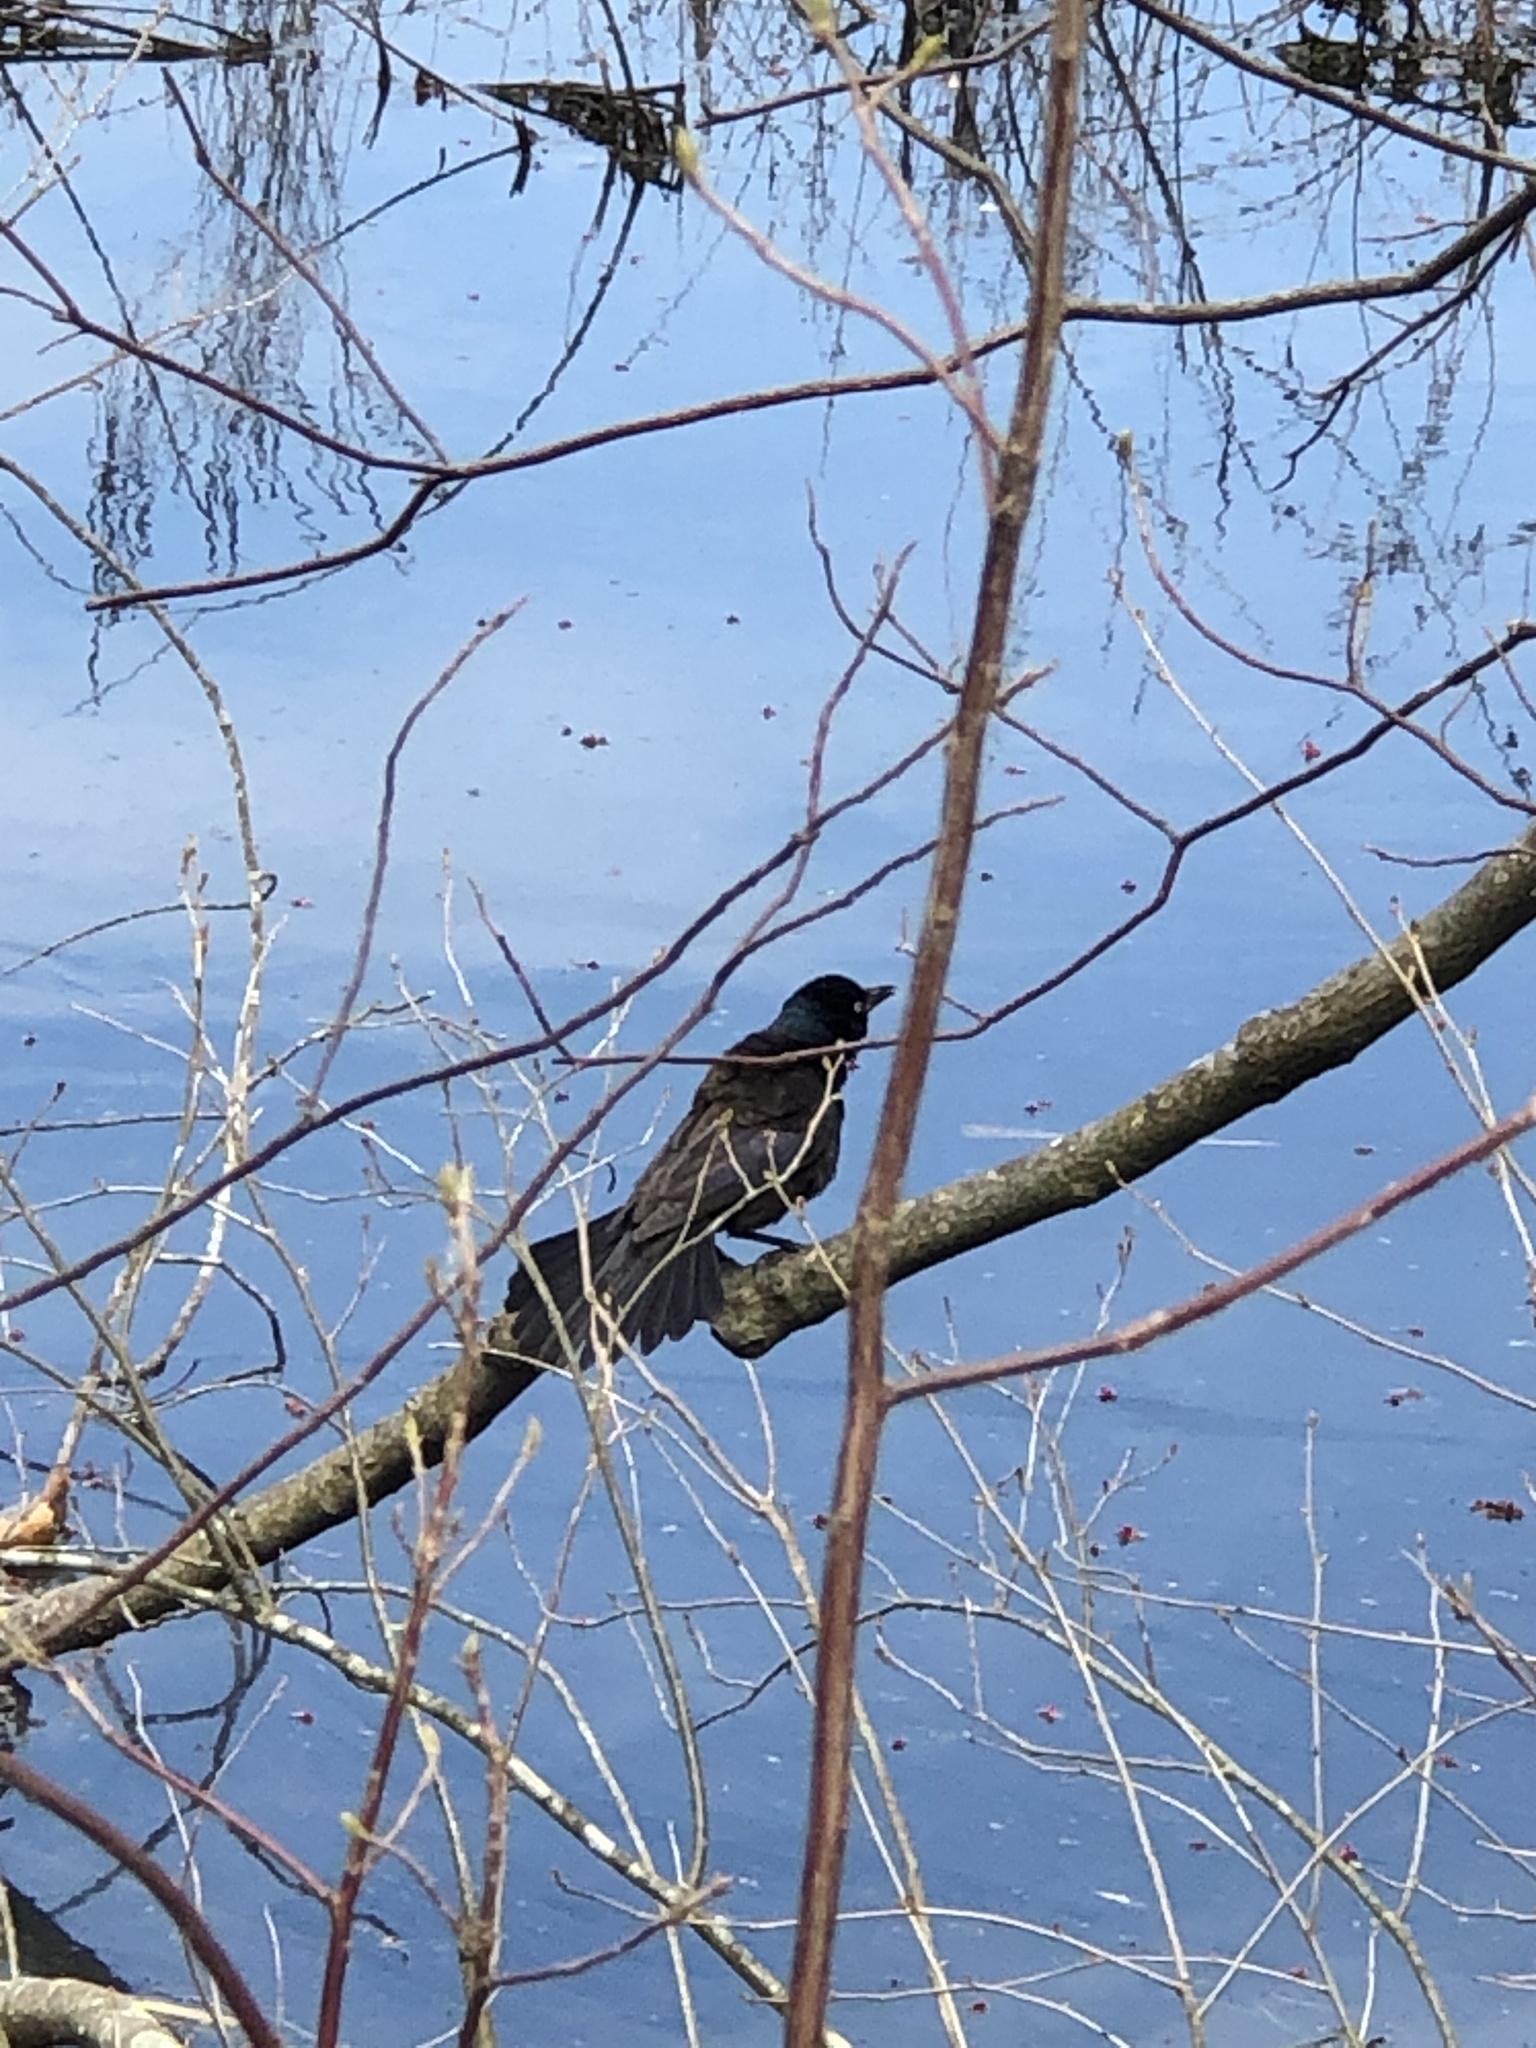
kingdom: Animalia
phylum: Chordata
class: Aves
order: Passeriformes
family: Icteridae
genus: Quiscalus
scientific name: Quiscalus quiscula
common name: Common grackle
